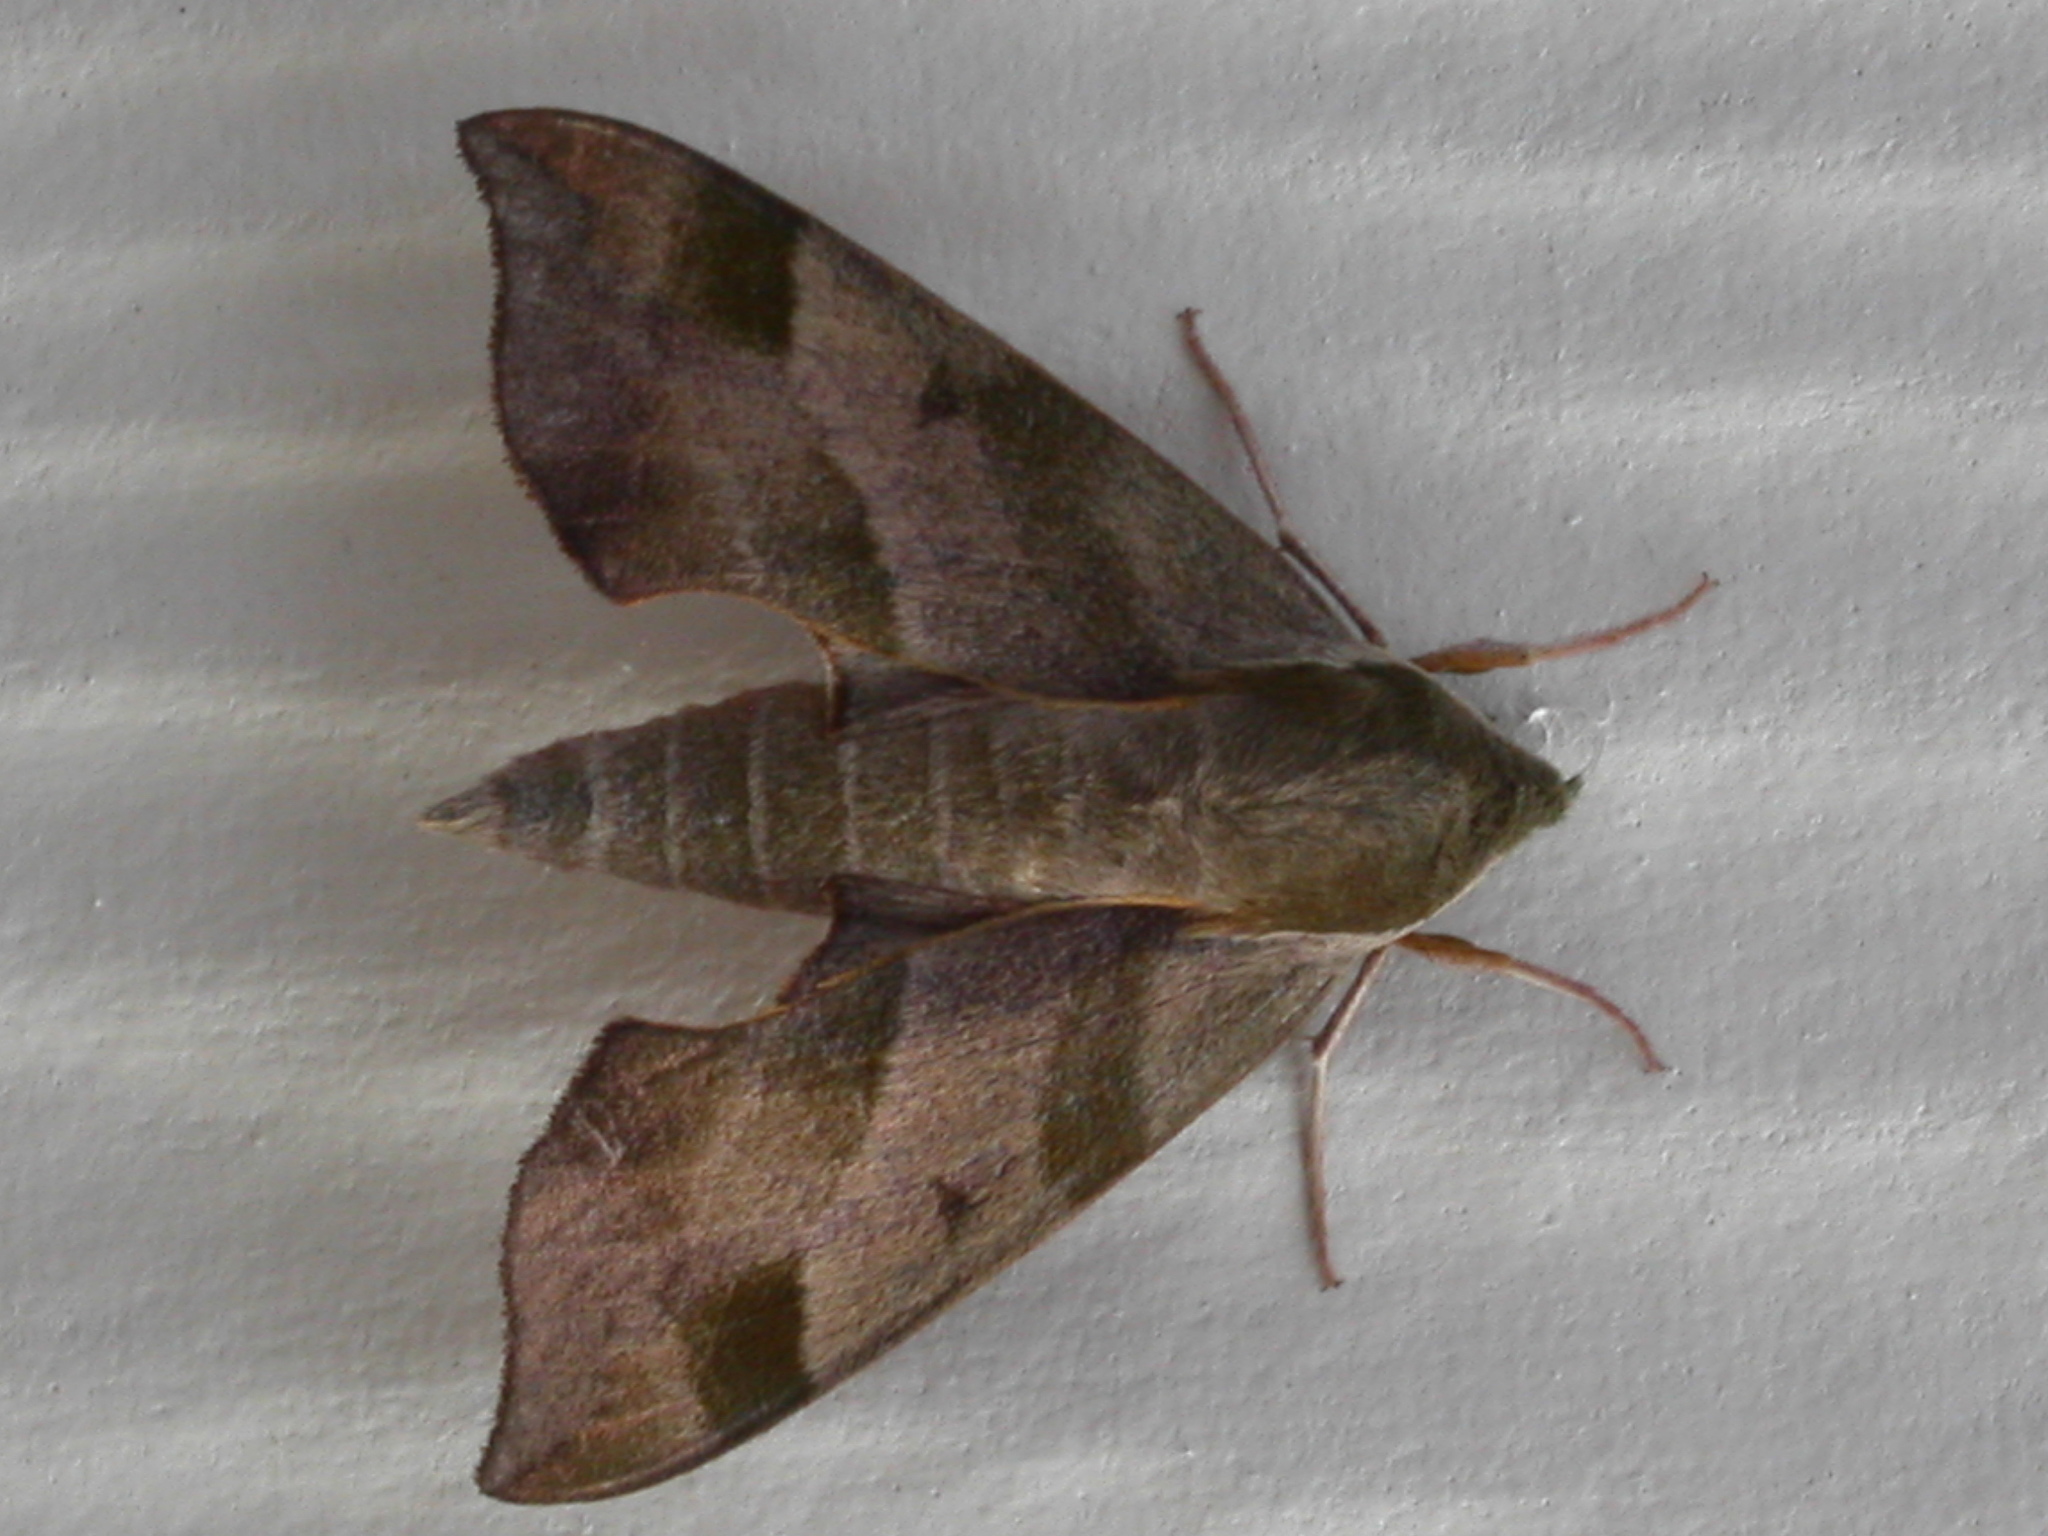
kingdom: Animalia
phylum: Arthropoda
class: Insecta
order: Lepidoptera
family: Sphingidae
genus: Darapsa
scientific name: Darapsa myron
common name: Hog sphinx
